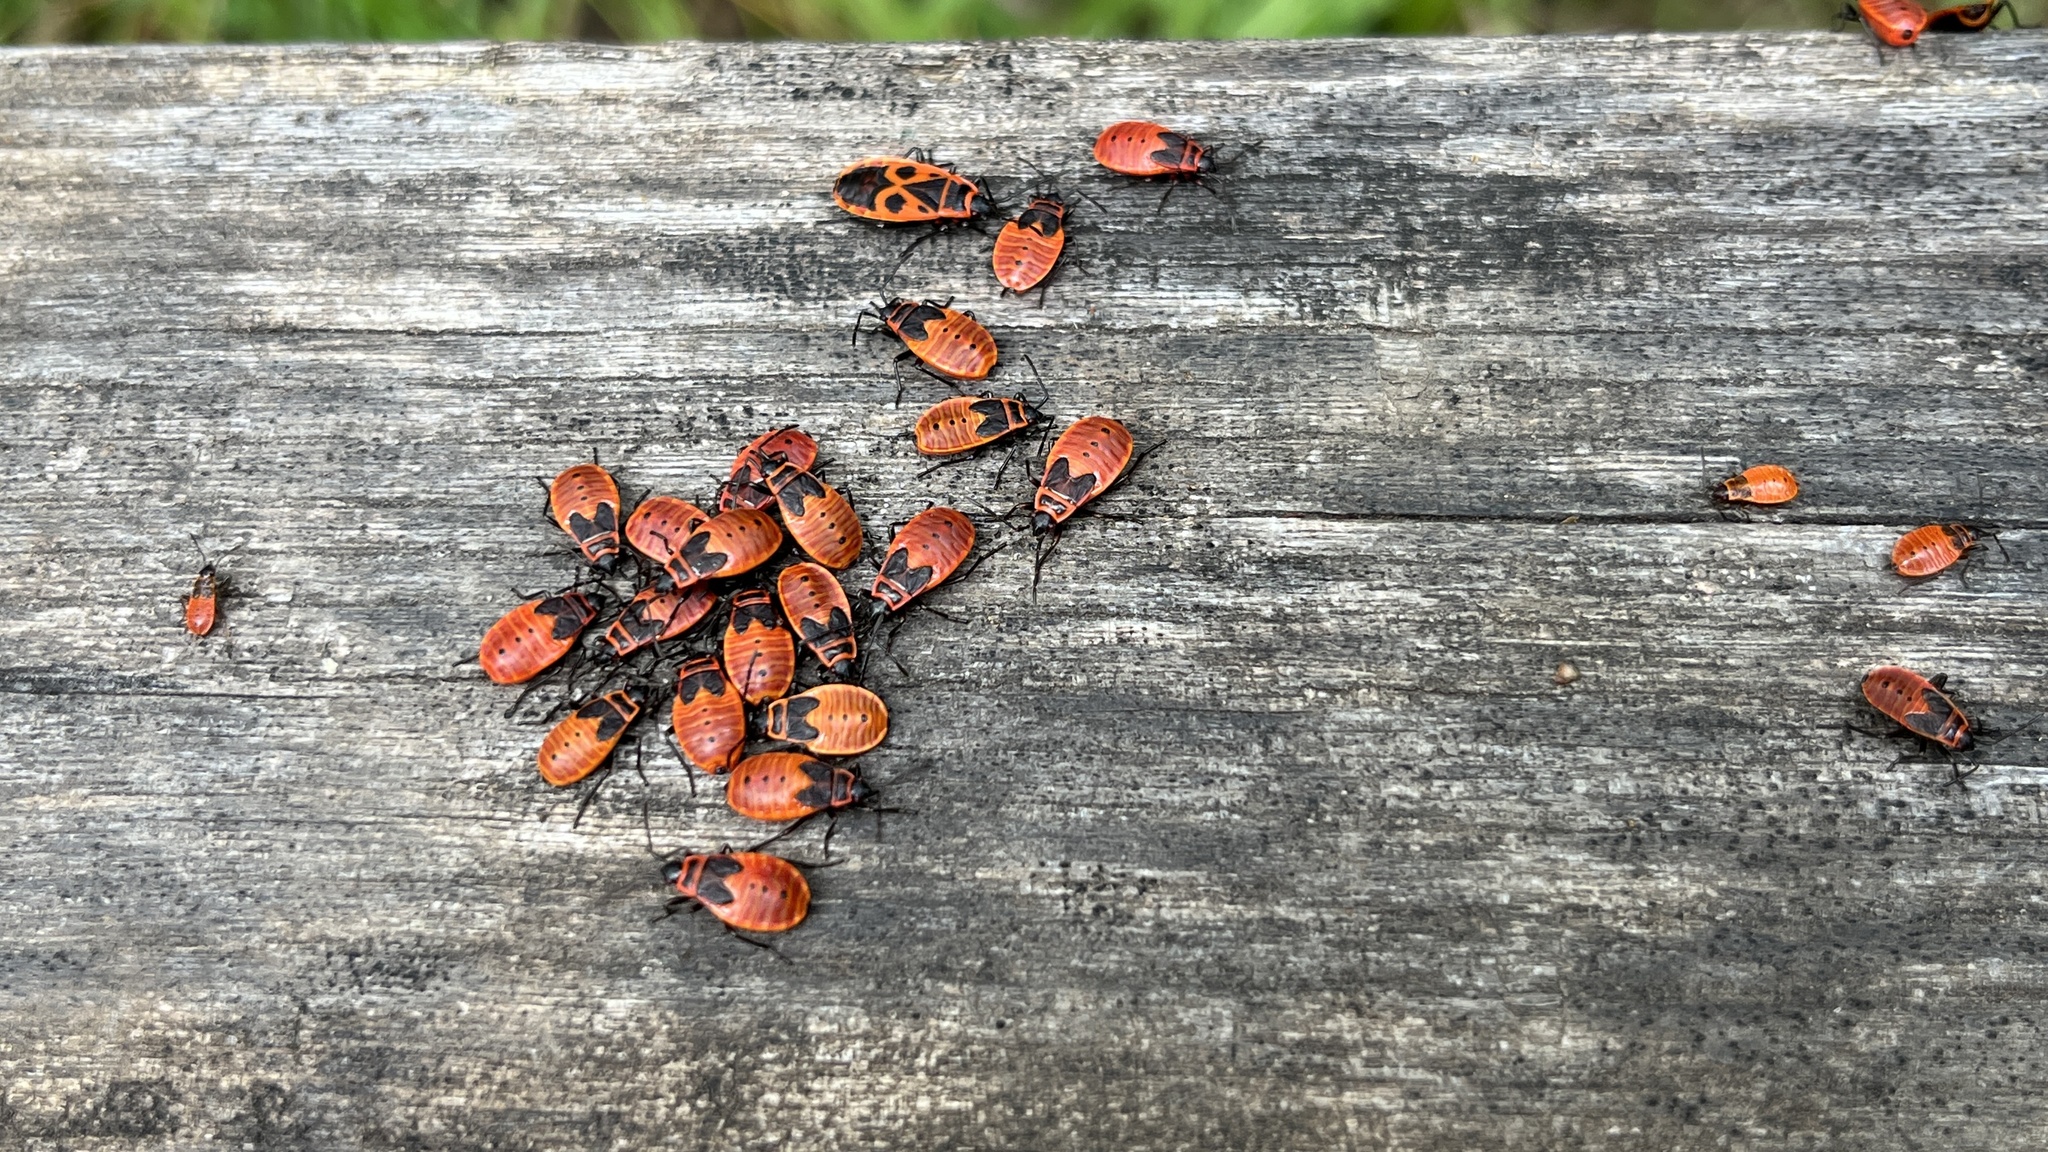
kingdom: Animalia
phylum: Arthropoda
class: Insecta
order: Hemiptera
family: Pyrrhocoridae
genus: Pyrrhocoris
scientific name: Pyrrhocoris apterus
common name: Firebug
